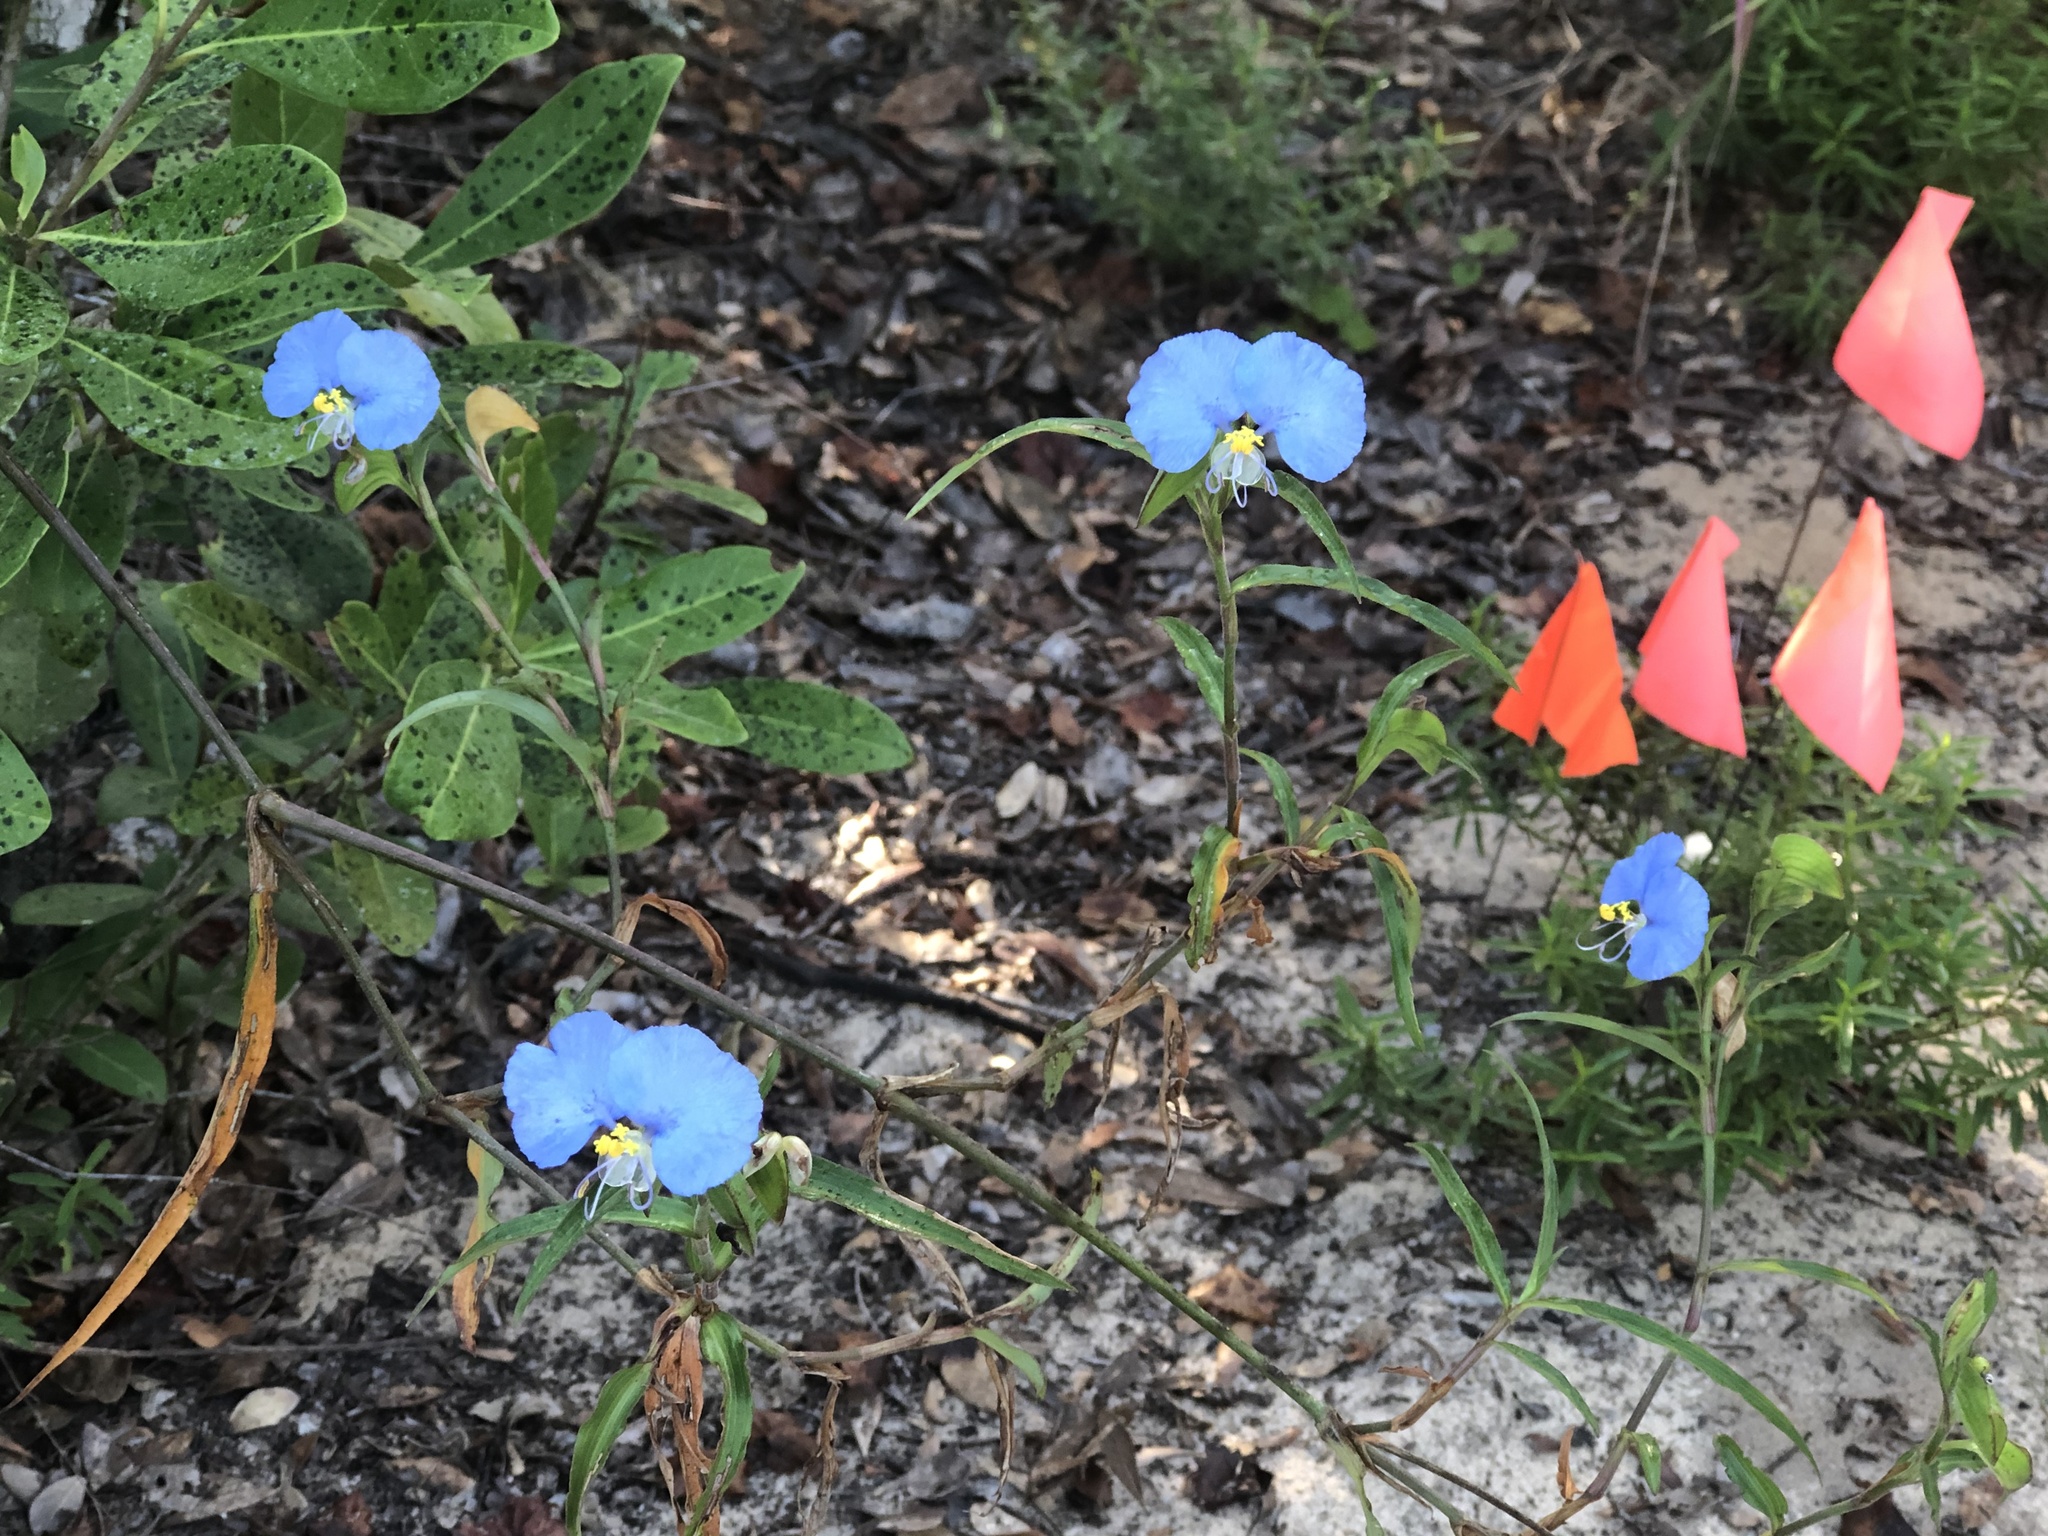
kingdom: Plantae
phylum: Tracheophyta
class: Liliopsida
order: Commelinales
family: Commelinaceae
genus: Commelina
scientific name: Commelina erecta
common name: Blousel blommetjie
